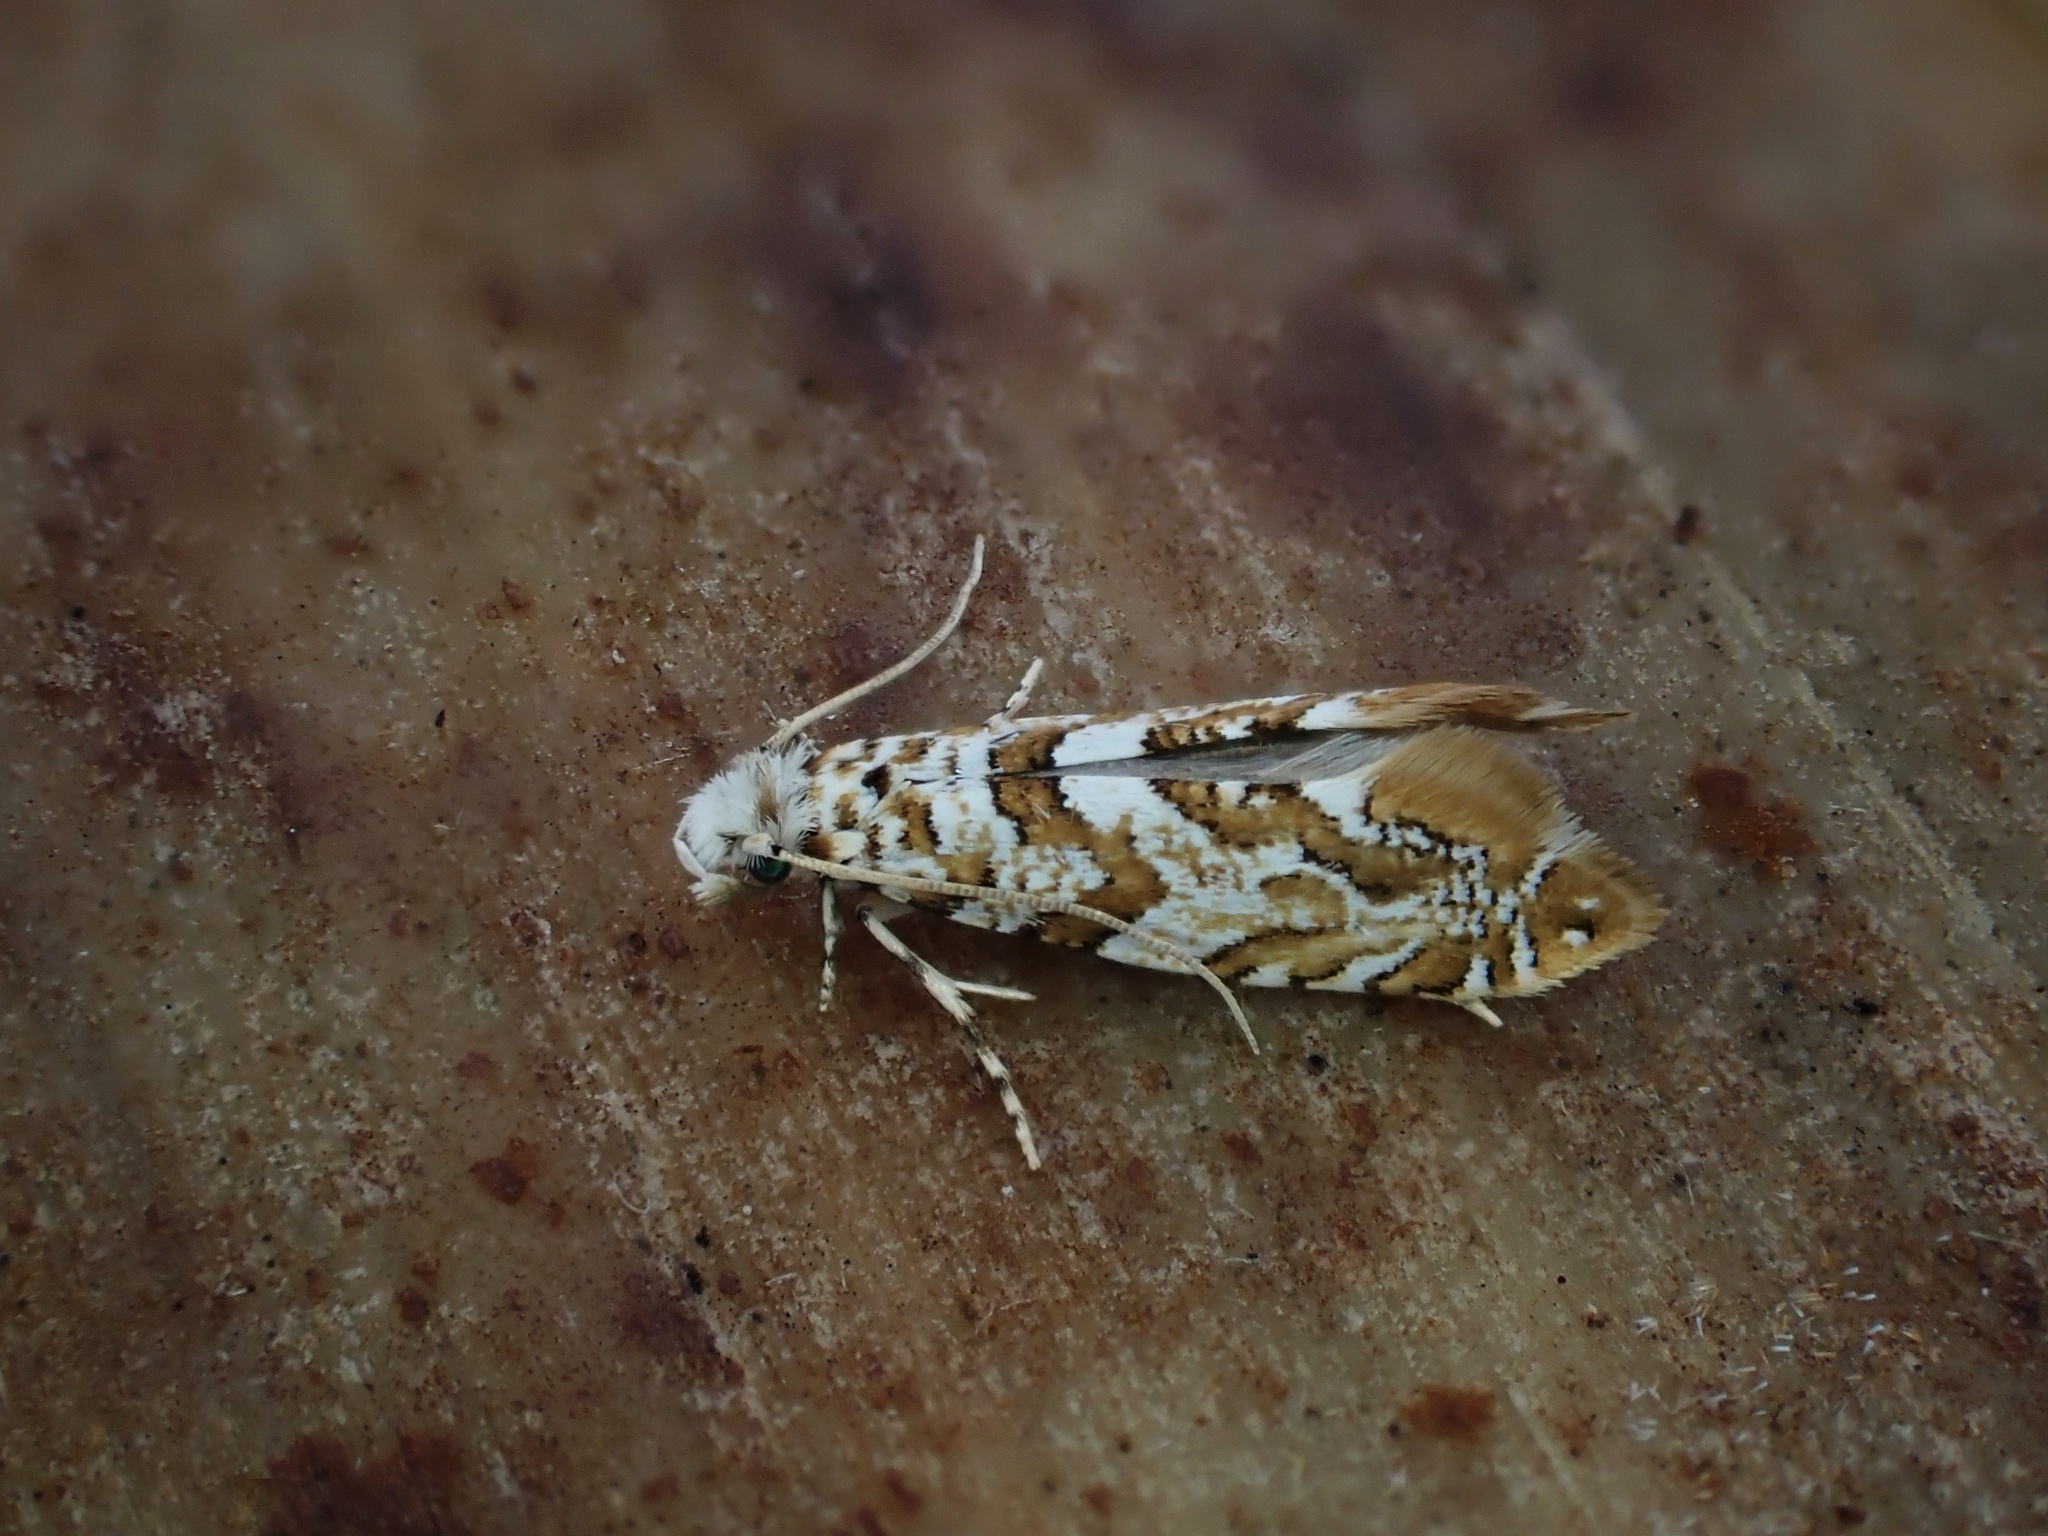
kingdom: Animalia
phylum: Arthropoda
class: Insecta
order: Lepidoptera
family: Tineidae
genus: Eschatotypa
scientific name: Eschatotypa melichrysa
